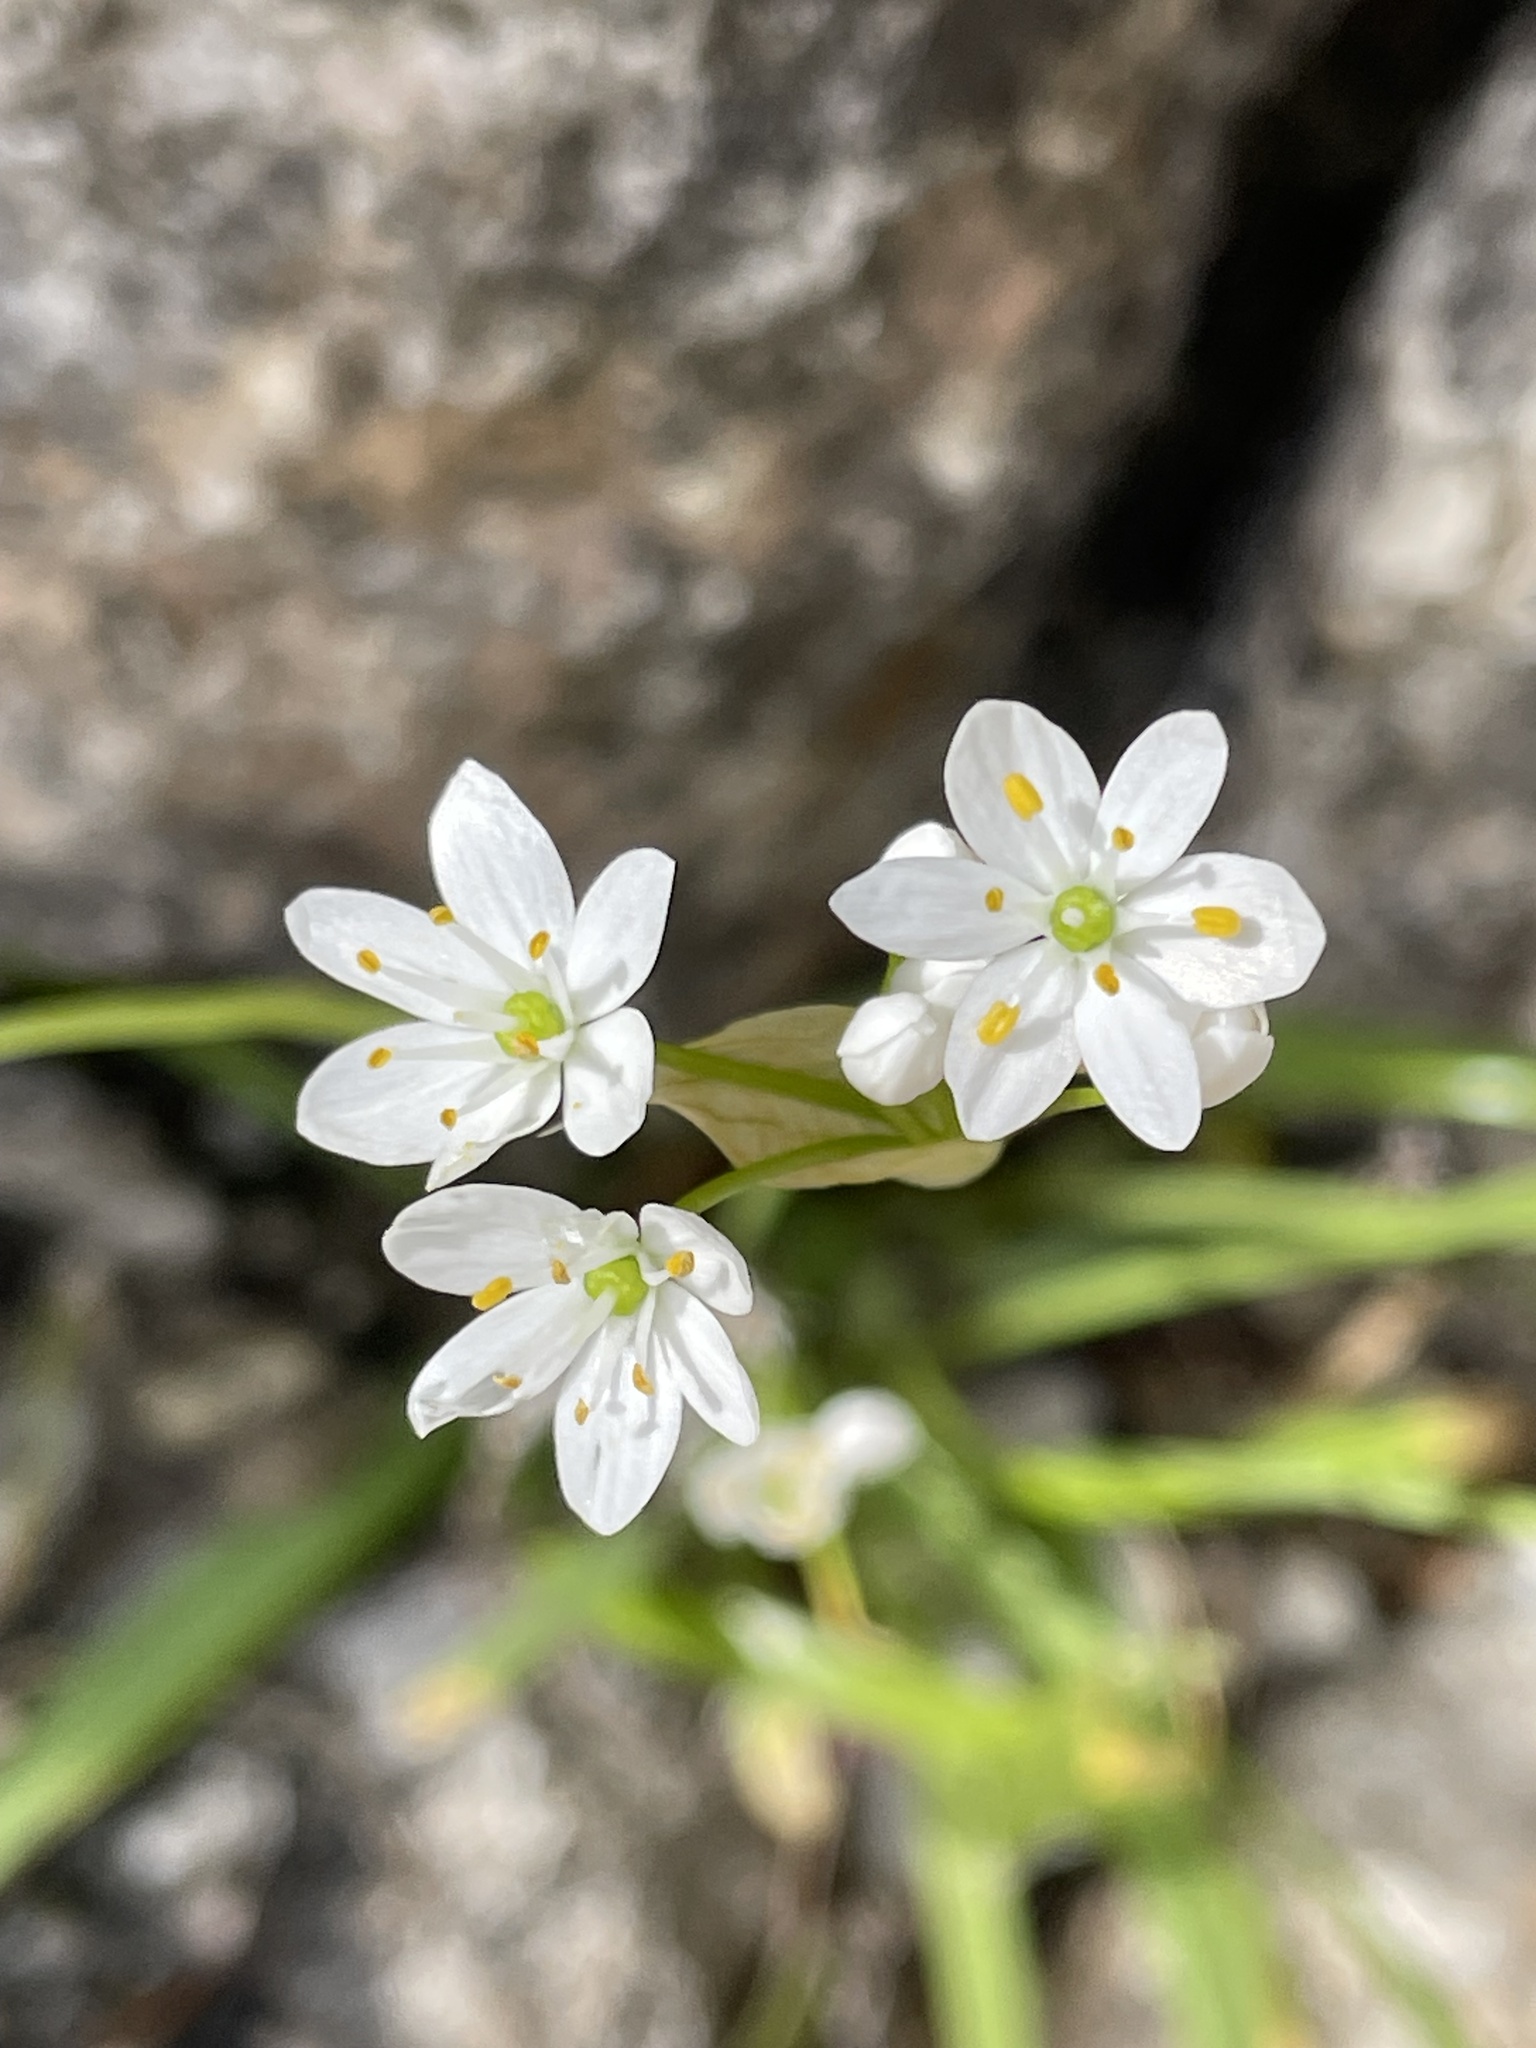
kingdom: Plantae
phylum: Tracheophyta
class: Liliopsida
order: Asparagales
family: Amaryllidaceae
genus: Allium
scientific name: Allium subhirsutum
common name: Hairy garlic
